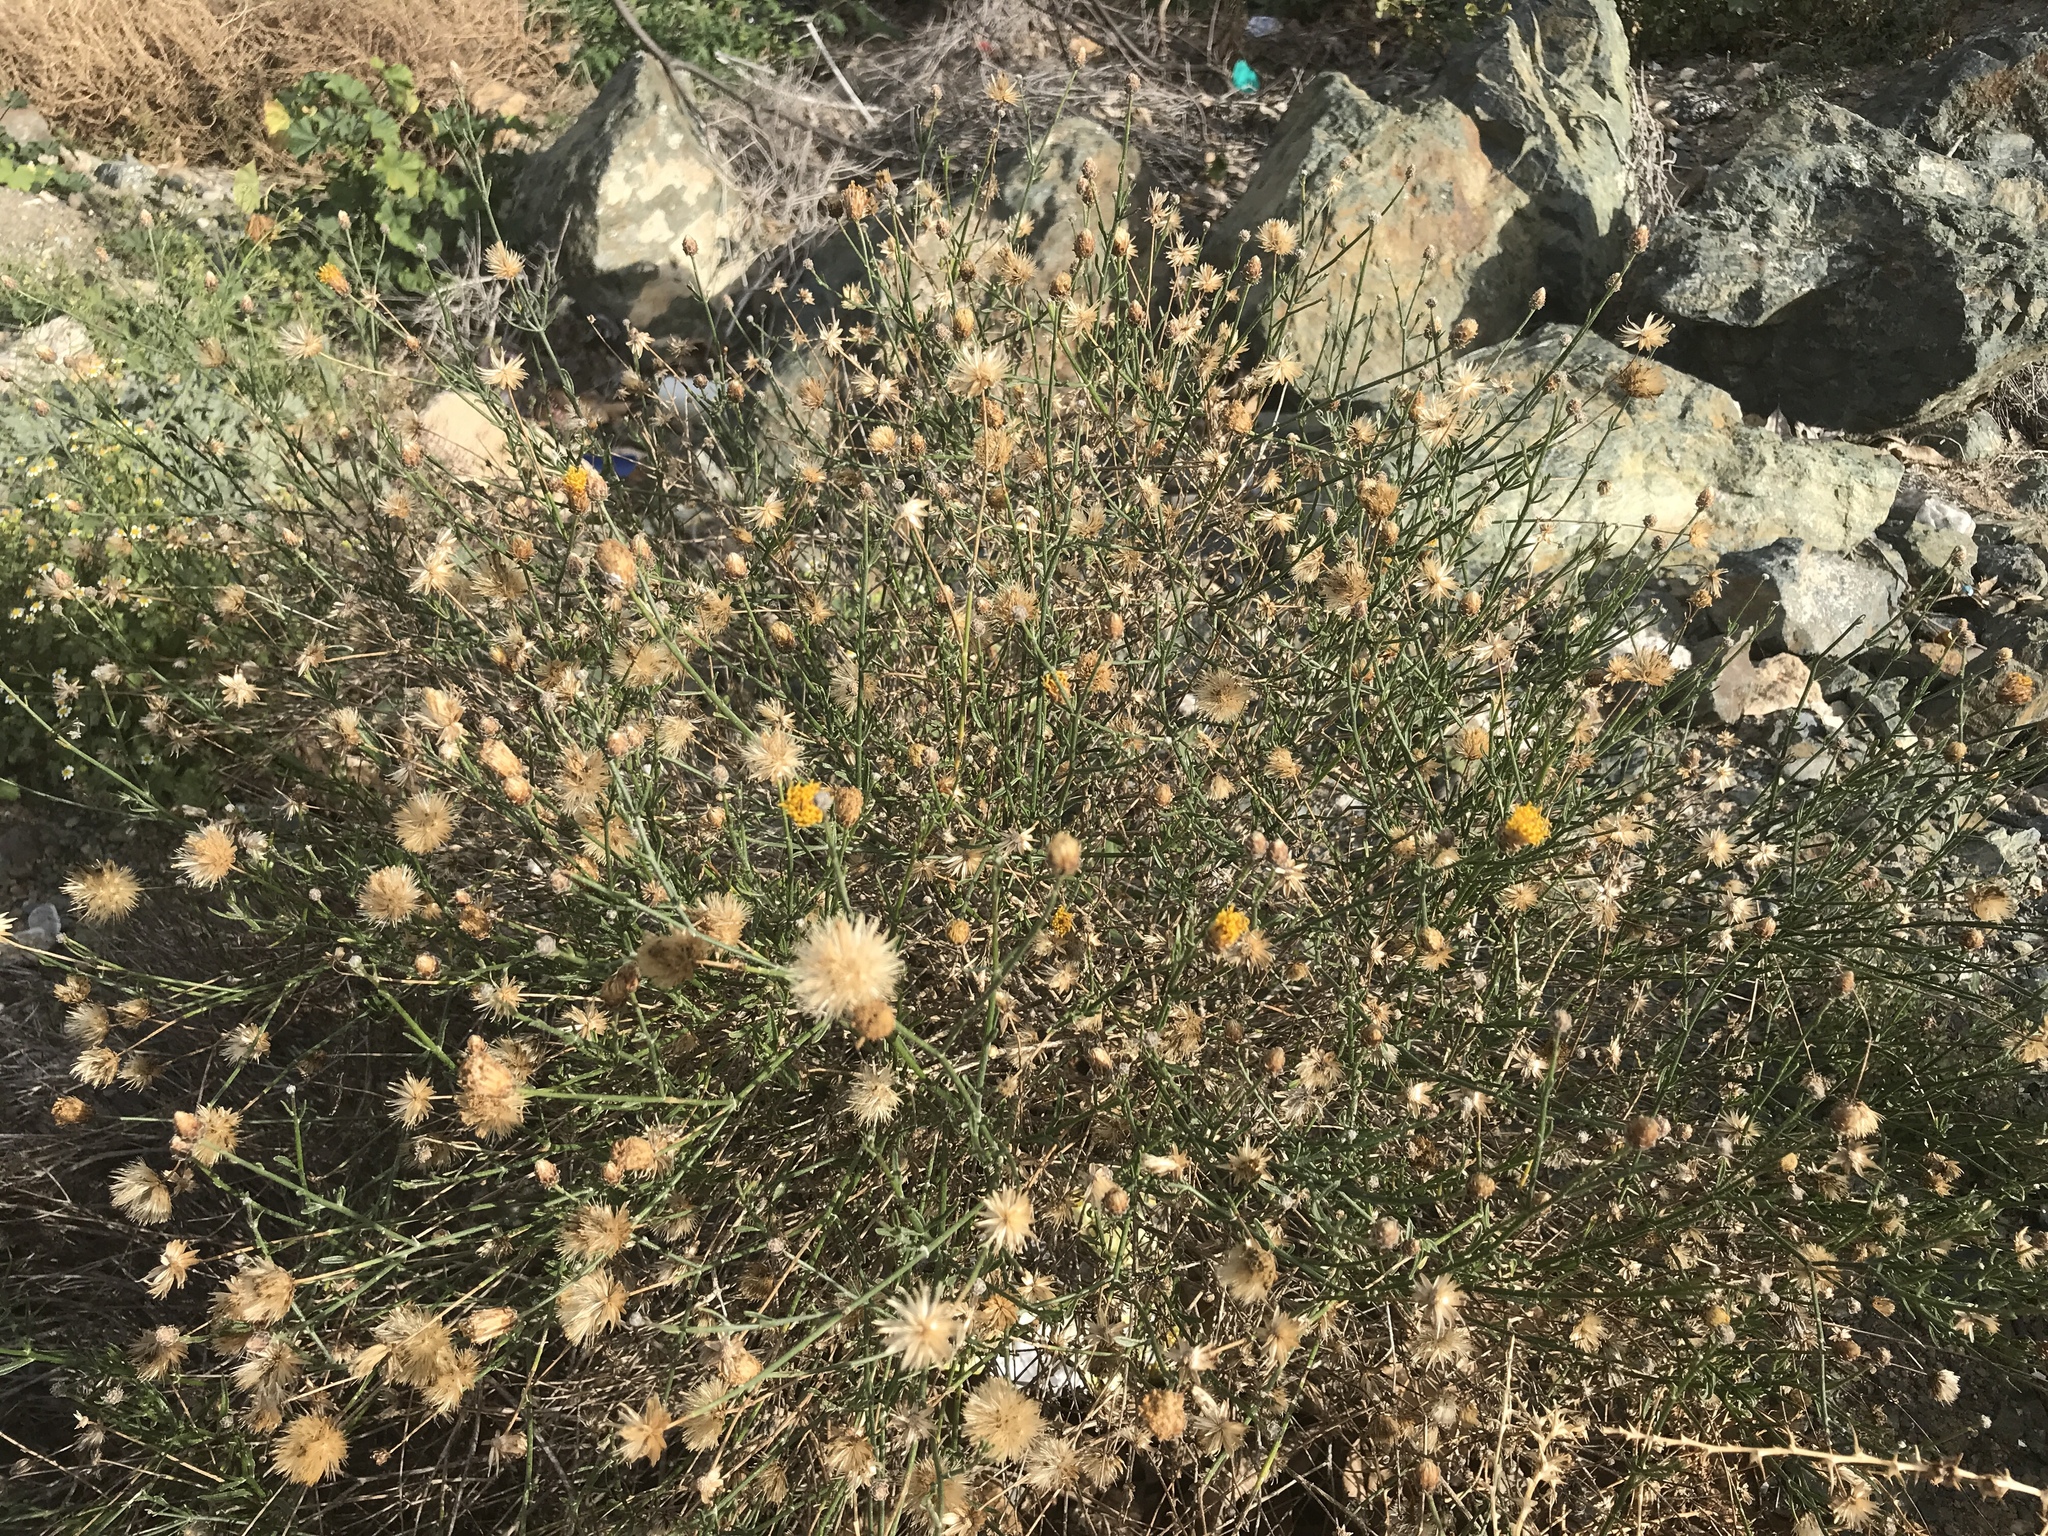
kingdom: Plantae
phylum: Tracheophyta
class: Magnoliopsida
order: Asterales
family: Asteraceae
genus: Bebbia
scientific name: Bebbia juncea
